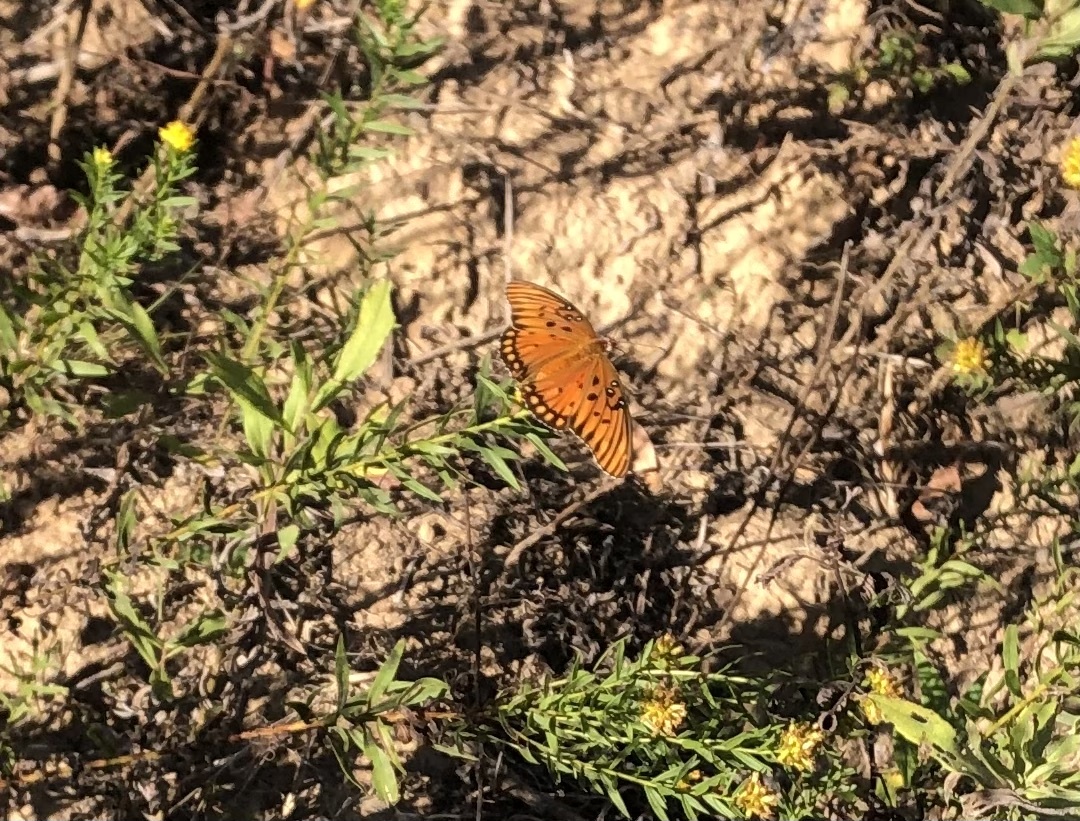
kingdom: Animalia
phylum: Arthropoda
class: Insecta
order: Lepidoptera
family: Nymphalidae
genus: Dione
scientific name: Dione vanillae
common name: Gulf fritillary
